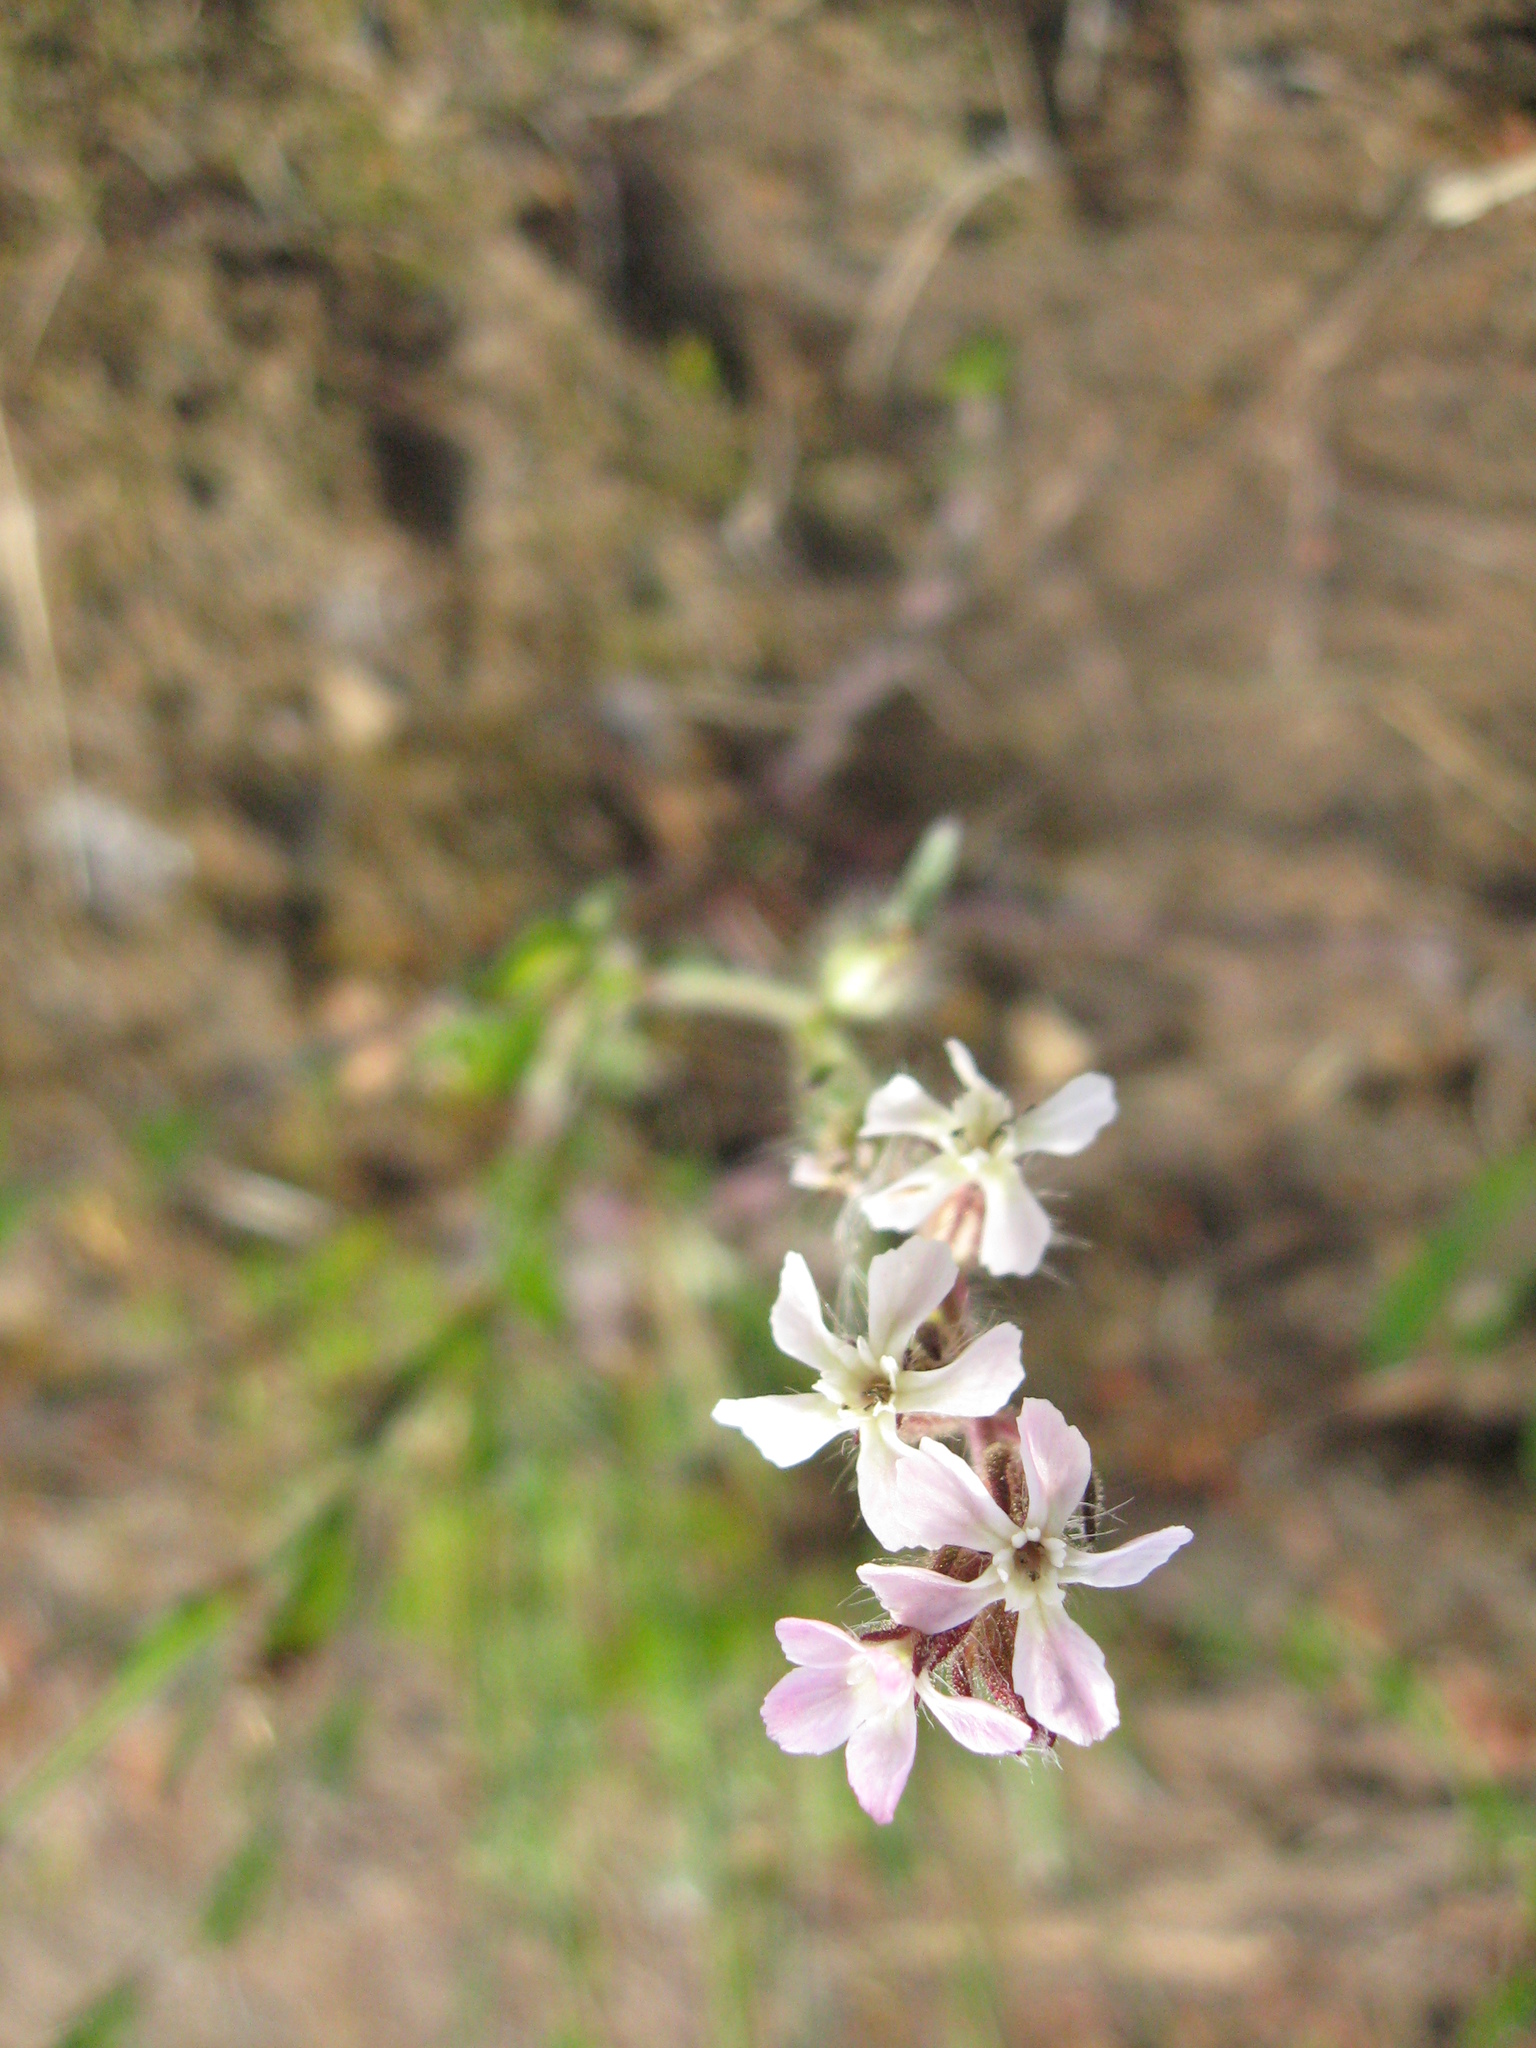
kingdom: Plantae
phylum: Tracheophyta
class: Magnoliopsida
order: Caryophyllales
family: Caryophyllaceae
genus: Silene
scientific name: Silene gallica
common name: Small-flowered catchfly
